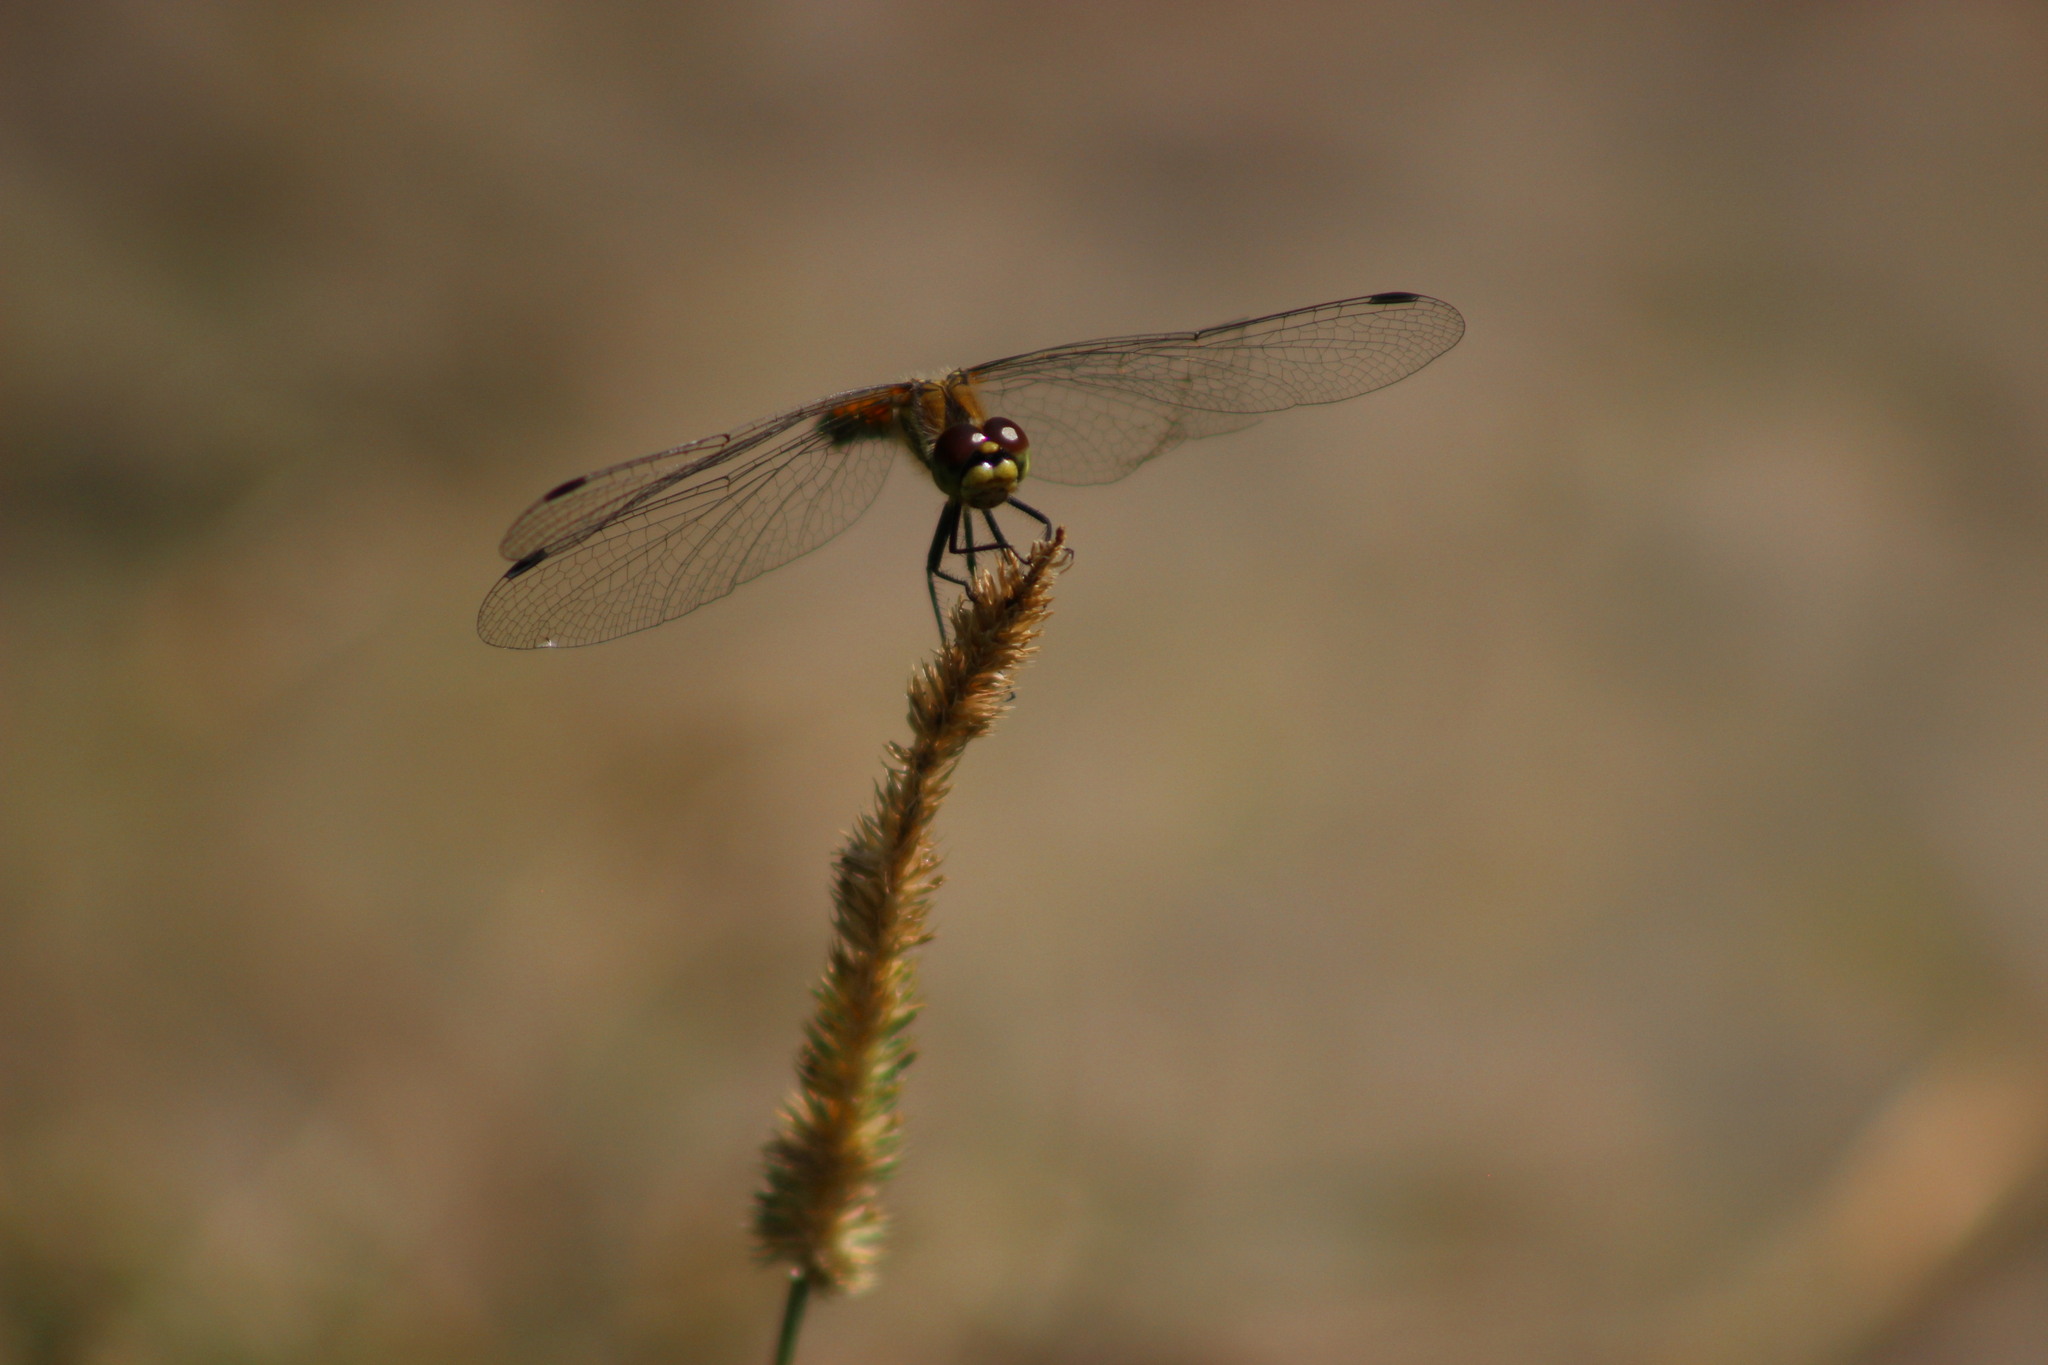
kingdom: Animalia
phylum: Arthropoda
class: Insecta
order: Odonata
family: Libellulidae
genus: Sympetrum
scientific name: Sympetrum danae
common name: Black darter
